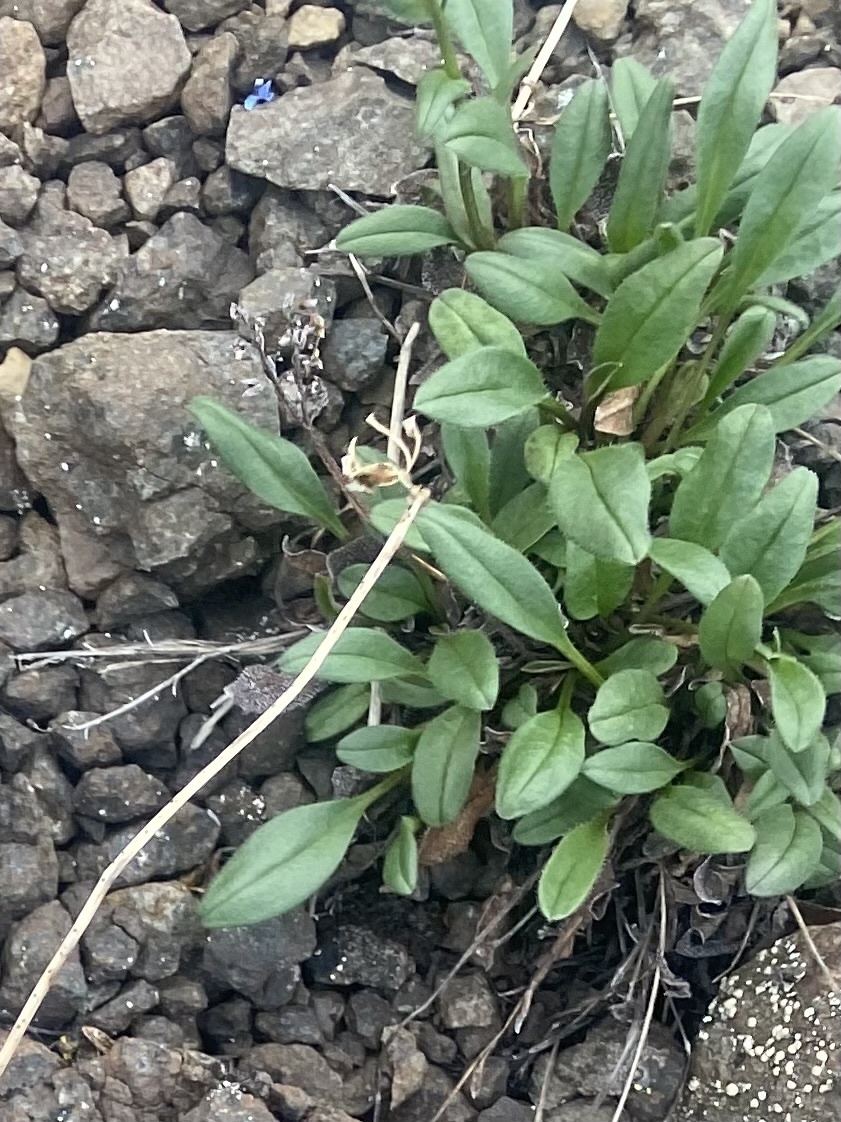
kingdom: Plantae
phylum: Tracheophyta
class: Magnoliopsida
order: Boraginales
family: Boraginaceae
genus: Myosotis
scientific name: Myosotis asiatica
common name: Asian forget-me-not
